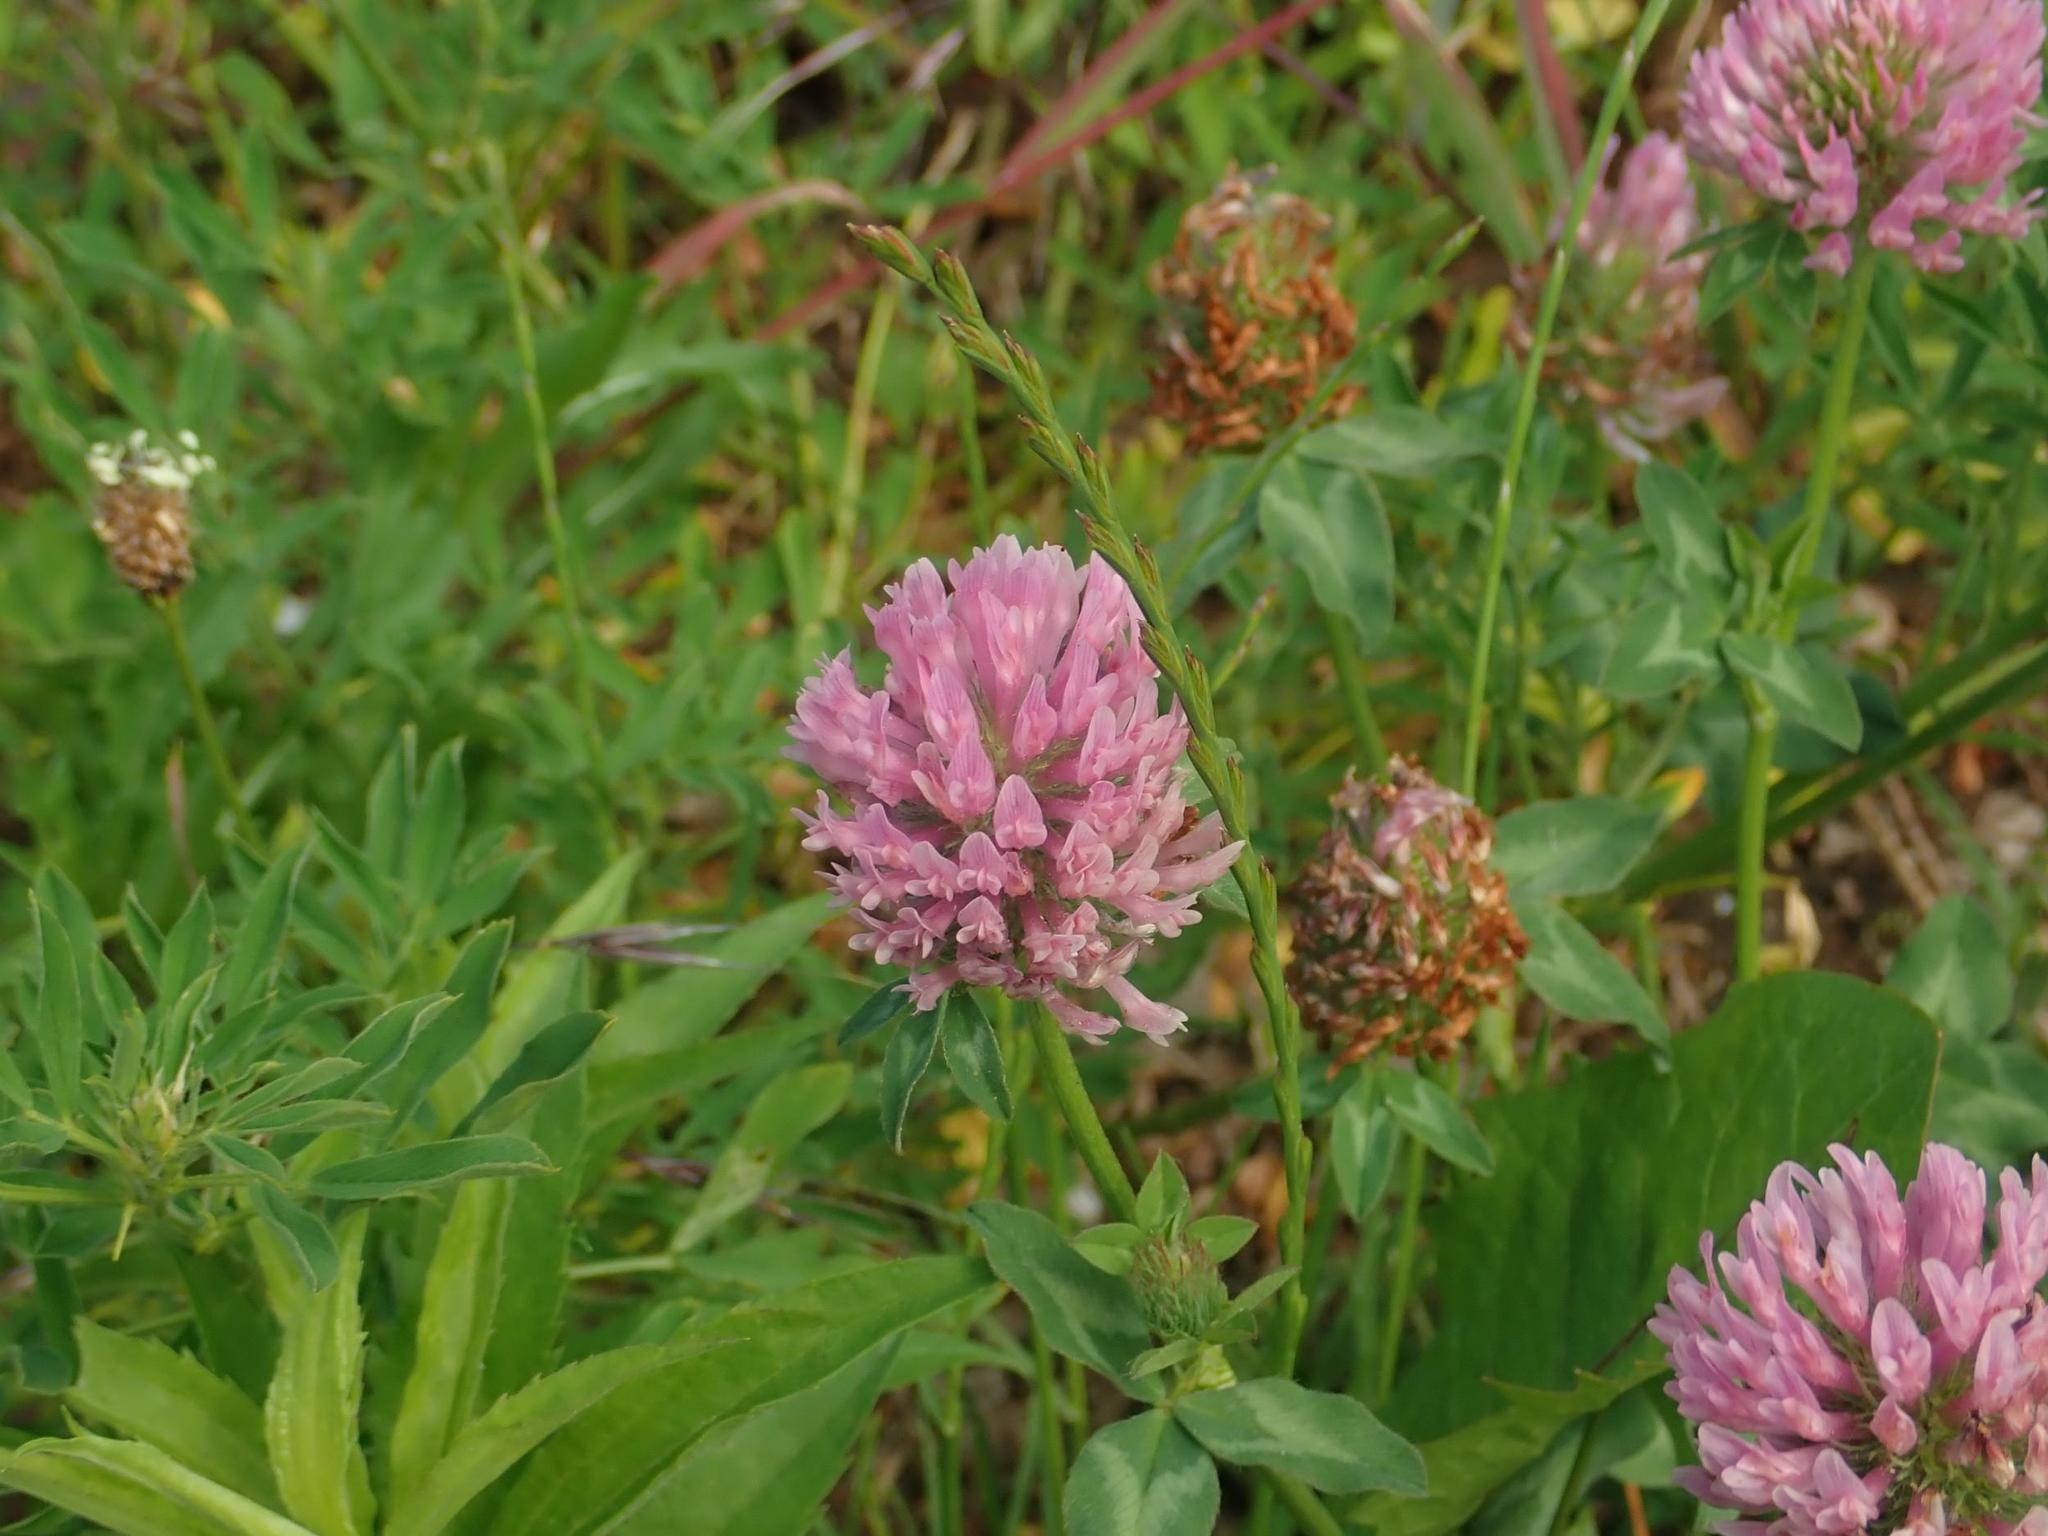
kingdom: Plantae
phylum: Tracheophyta
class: Magnoliopsida
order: Fabales
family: Fabaceae
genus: Trifolium
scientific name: Trifolium pratense
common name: Red clover
